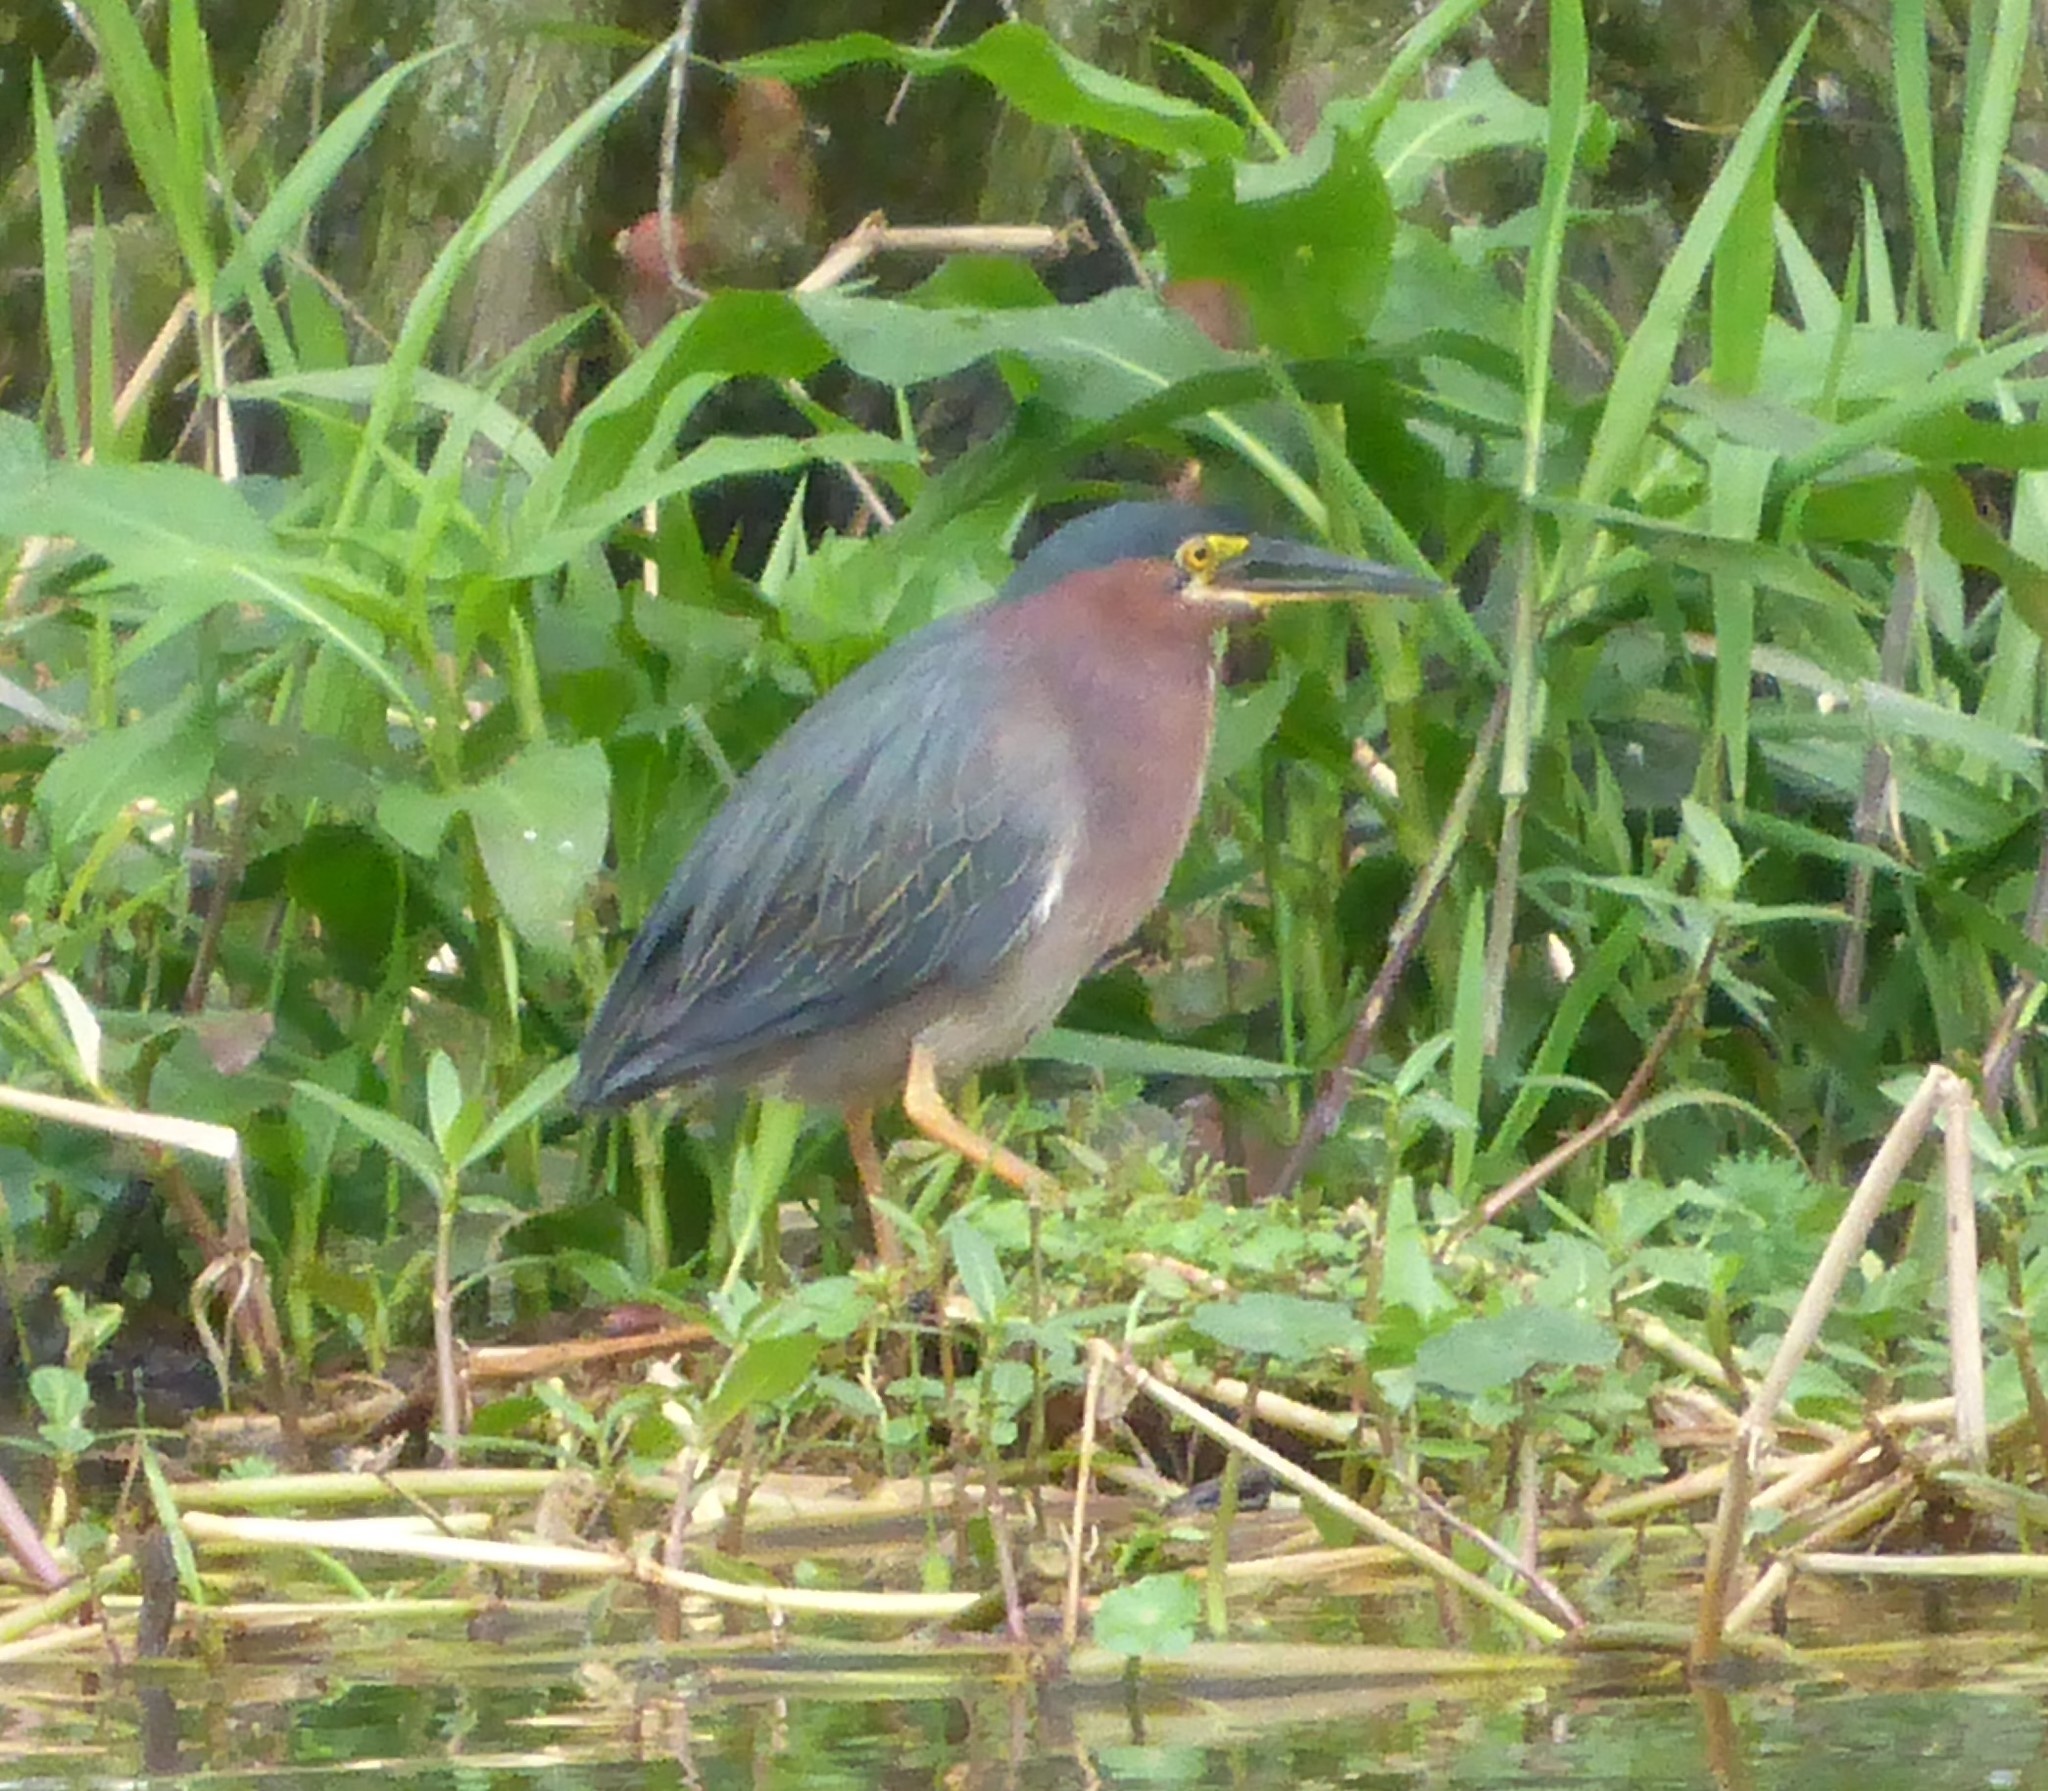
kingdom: Animalia
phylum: Chordata
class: Aves
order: Pelecaniformes
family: Ardeidae
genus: Butorides
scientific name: Butorides virescens
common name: Green heron
